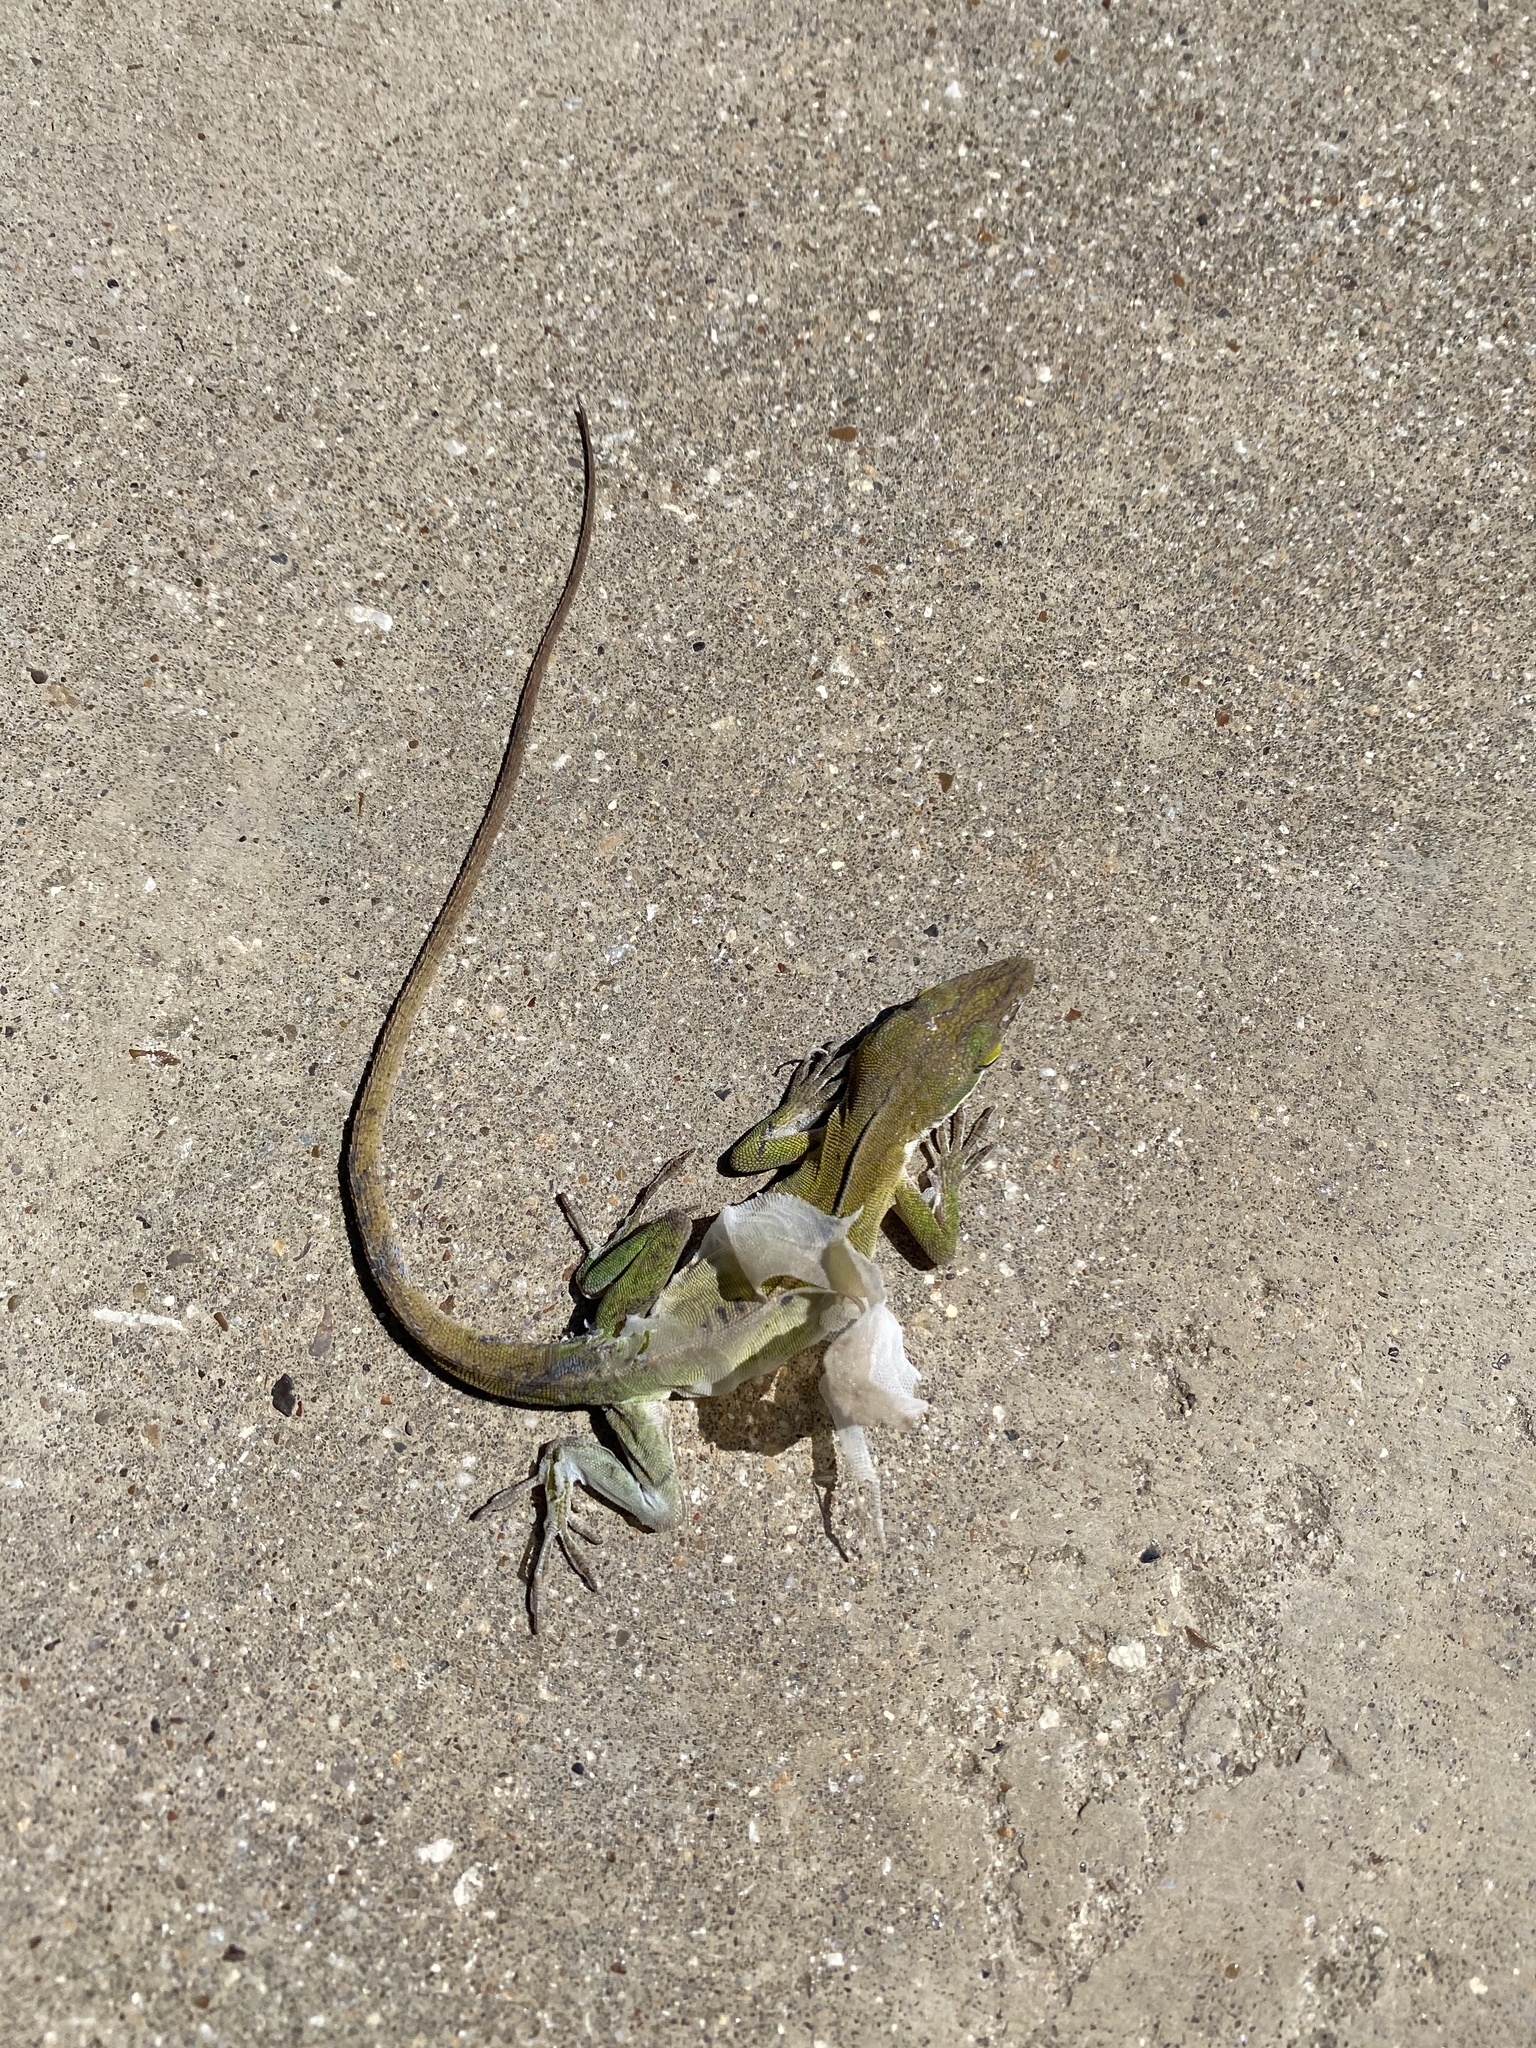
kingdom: Animalia
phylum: Chordata
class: Squamata
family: Dactyloidae
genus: Anolis
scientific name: Anolis carolinensis
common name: Green anole
